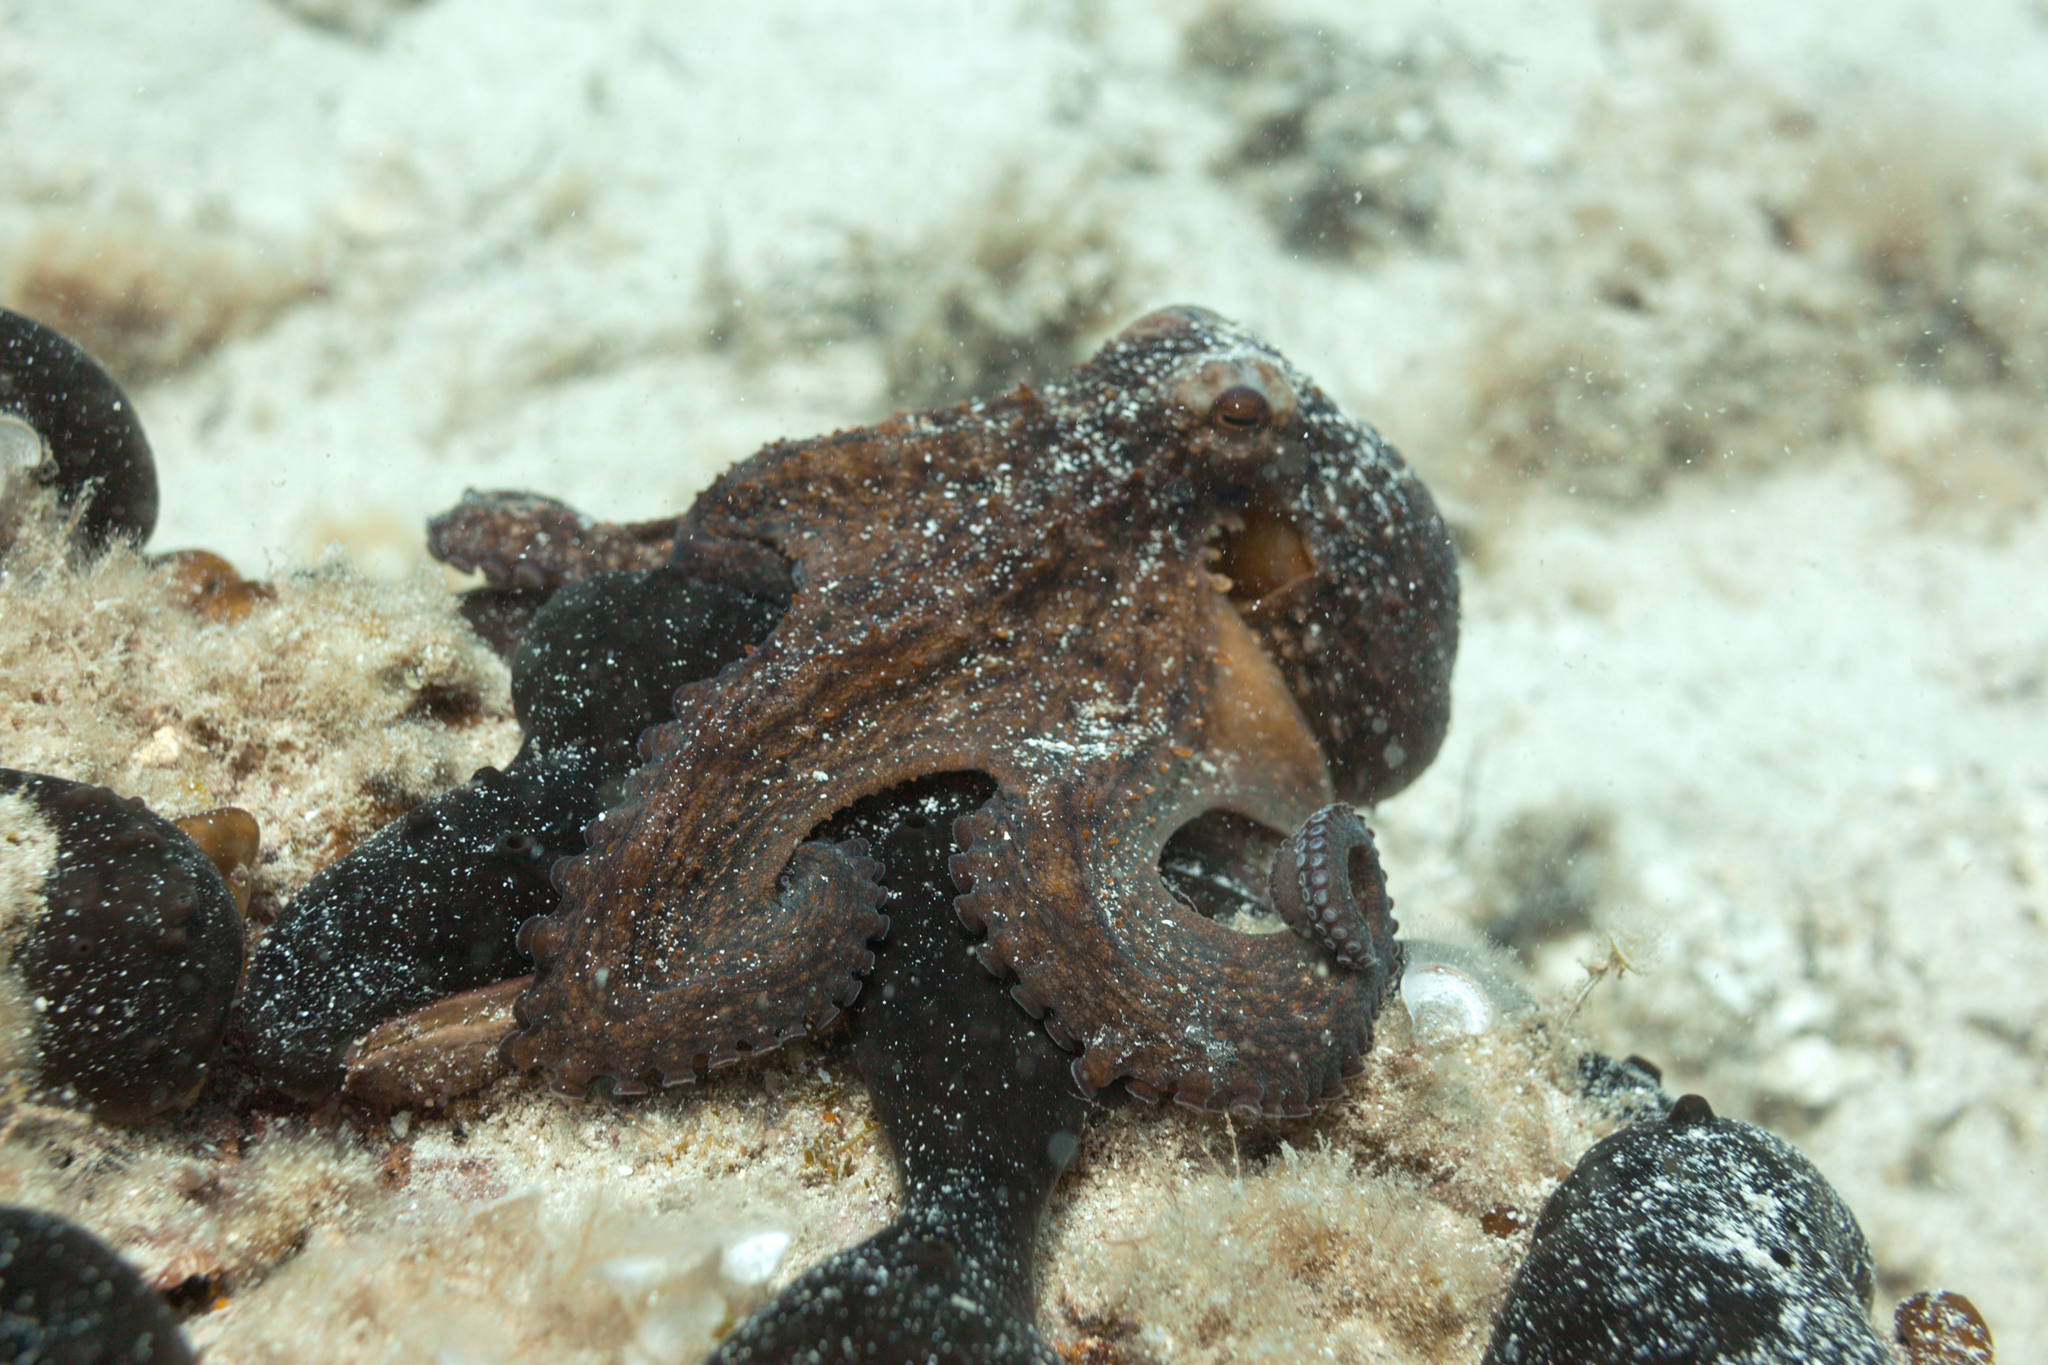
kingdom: Animalia
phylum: Mollusca
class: Cephalopoda
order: Octopoda
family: Octopodidae
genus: Octopus
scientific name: Octopus vulgaris
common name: Common octopus
